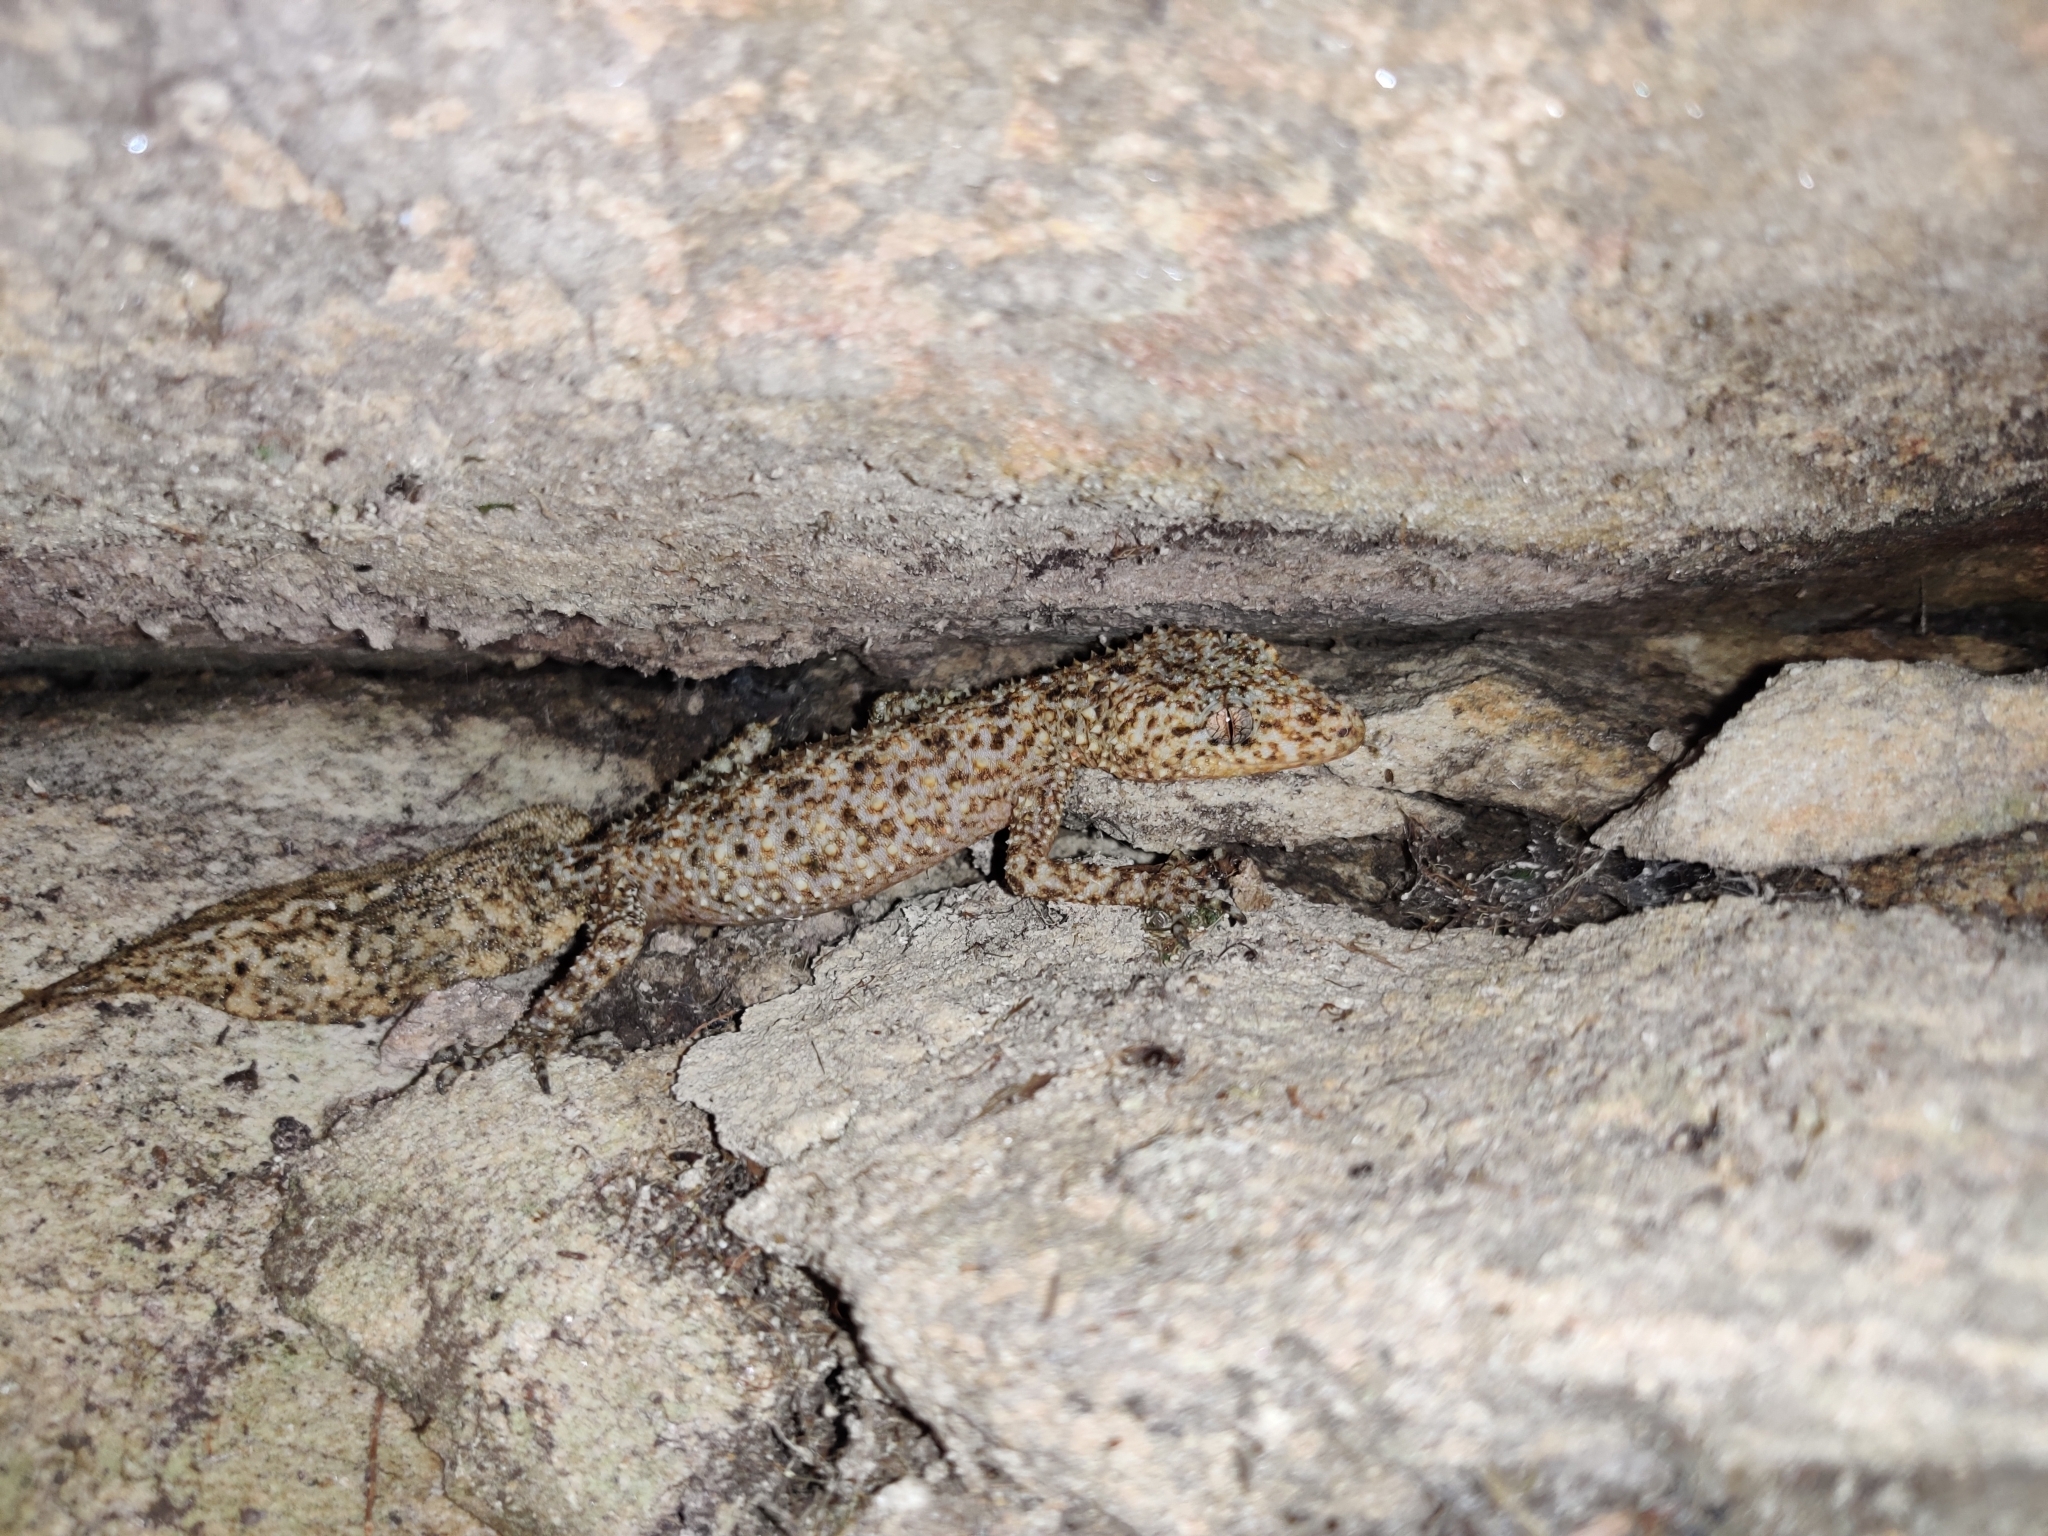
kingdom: Animalia
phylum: Chordata
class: Squamata
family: Carphodactylidae
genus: Phyllurus
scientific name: Phyllurus platurus
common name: Broad-tailed gecko
